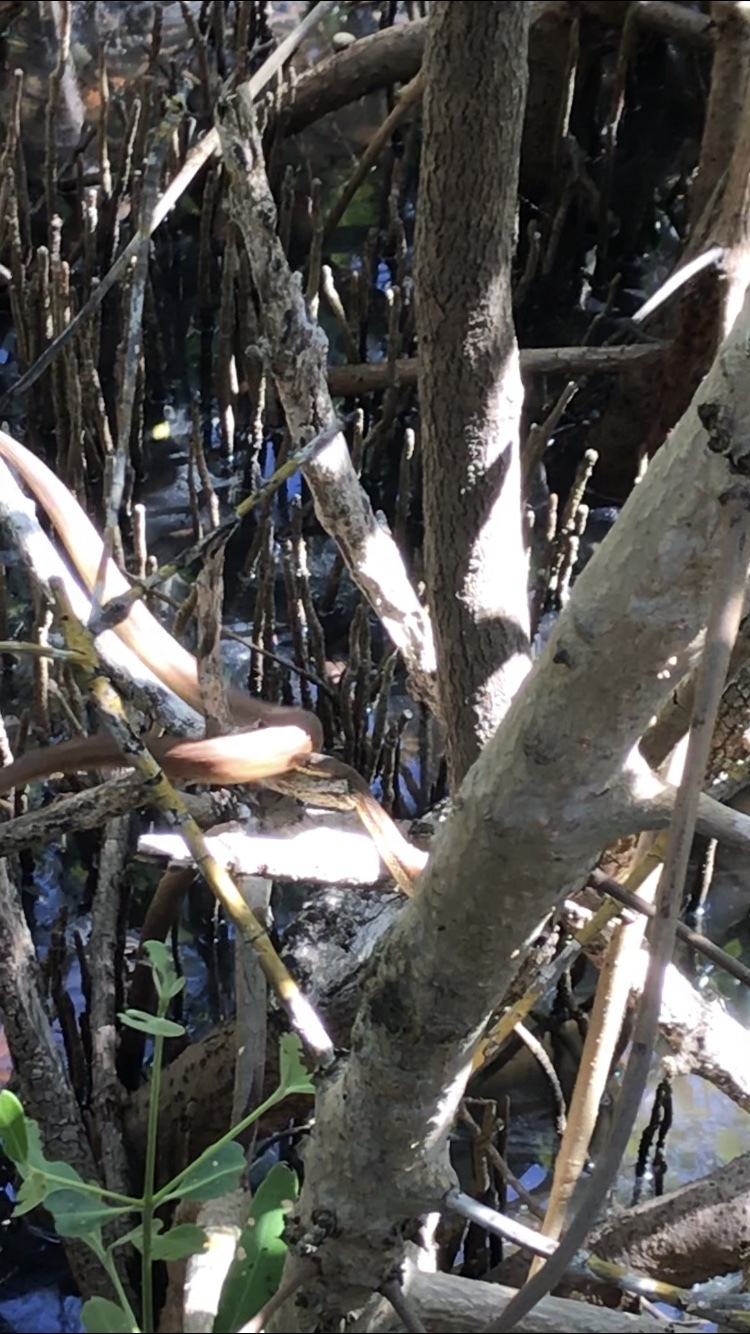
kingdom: Animalia
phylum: Chordata
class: Squamata
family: Colubridae
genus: Nerodia
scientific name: Nerodia clarkii
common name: Atlantic saltmarsh snake
